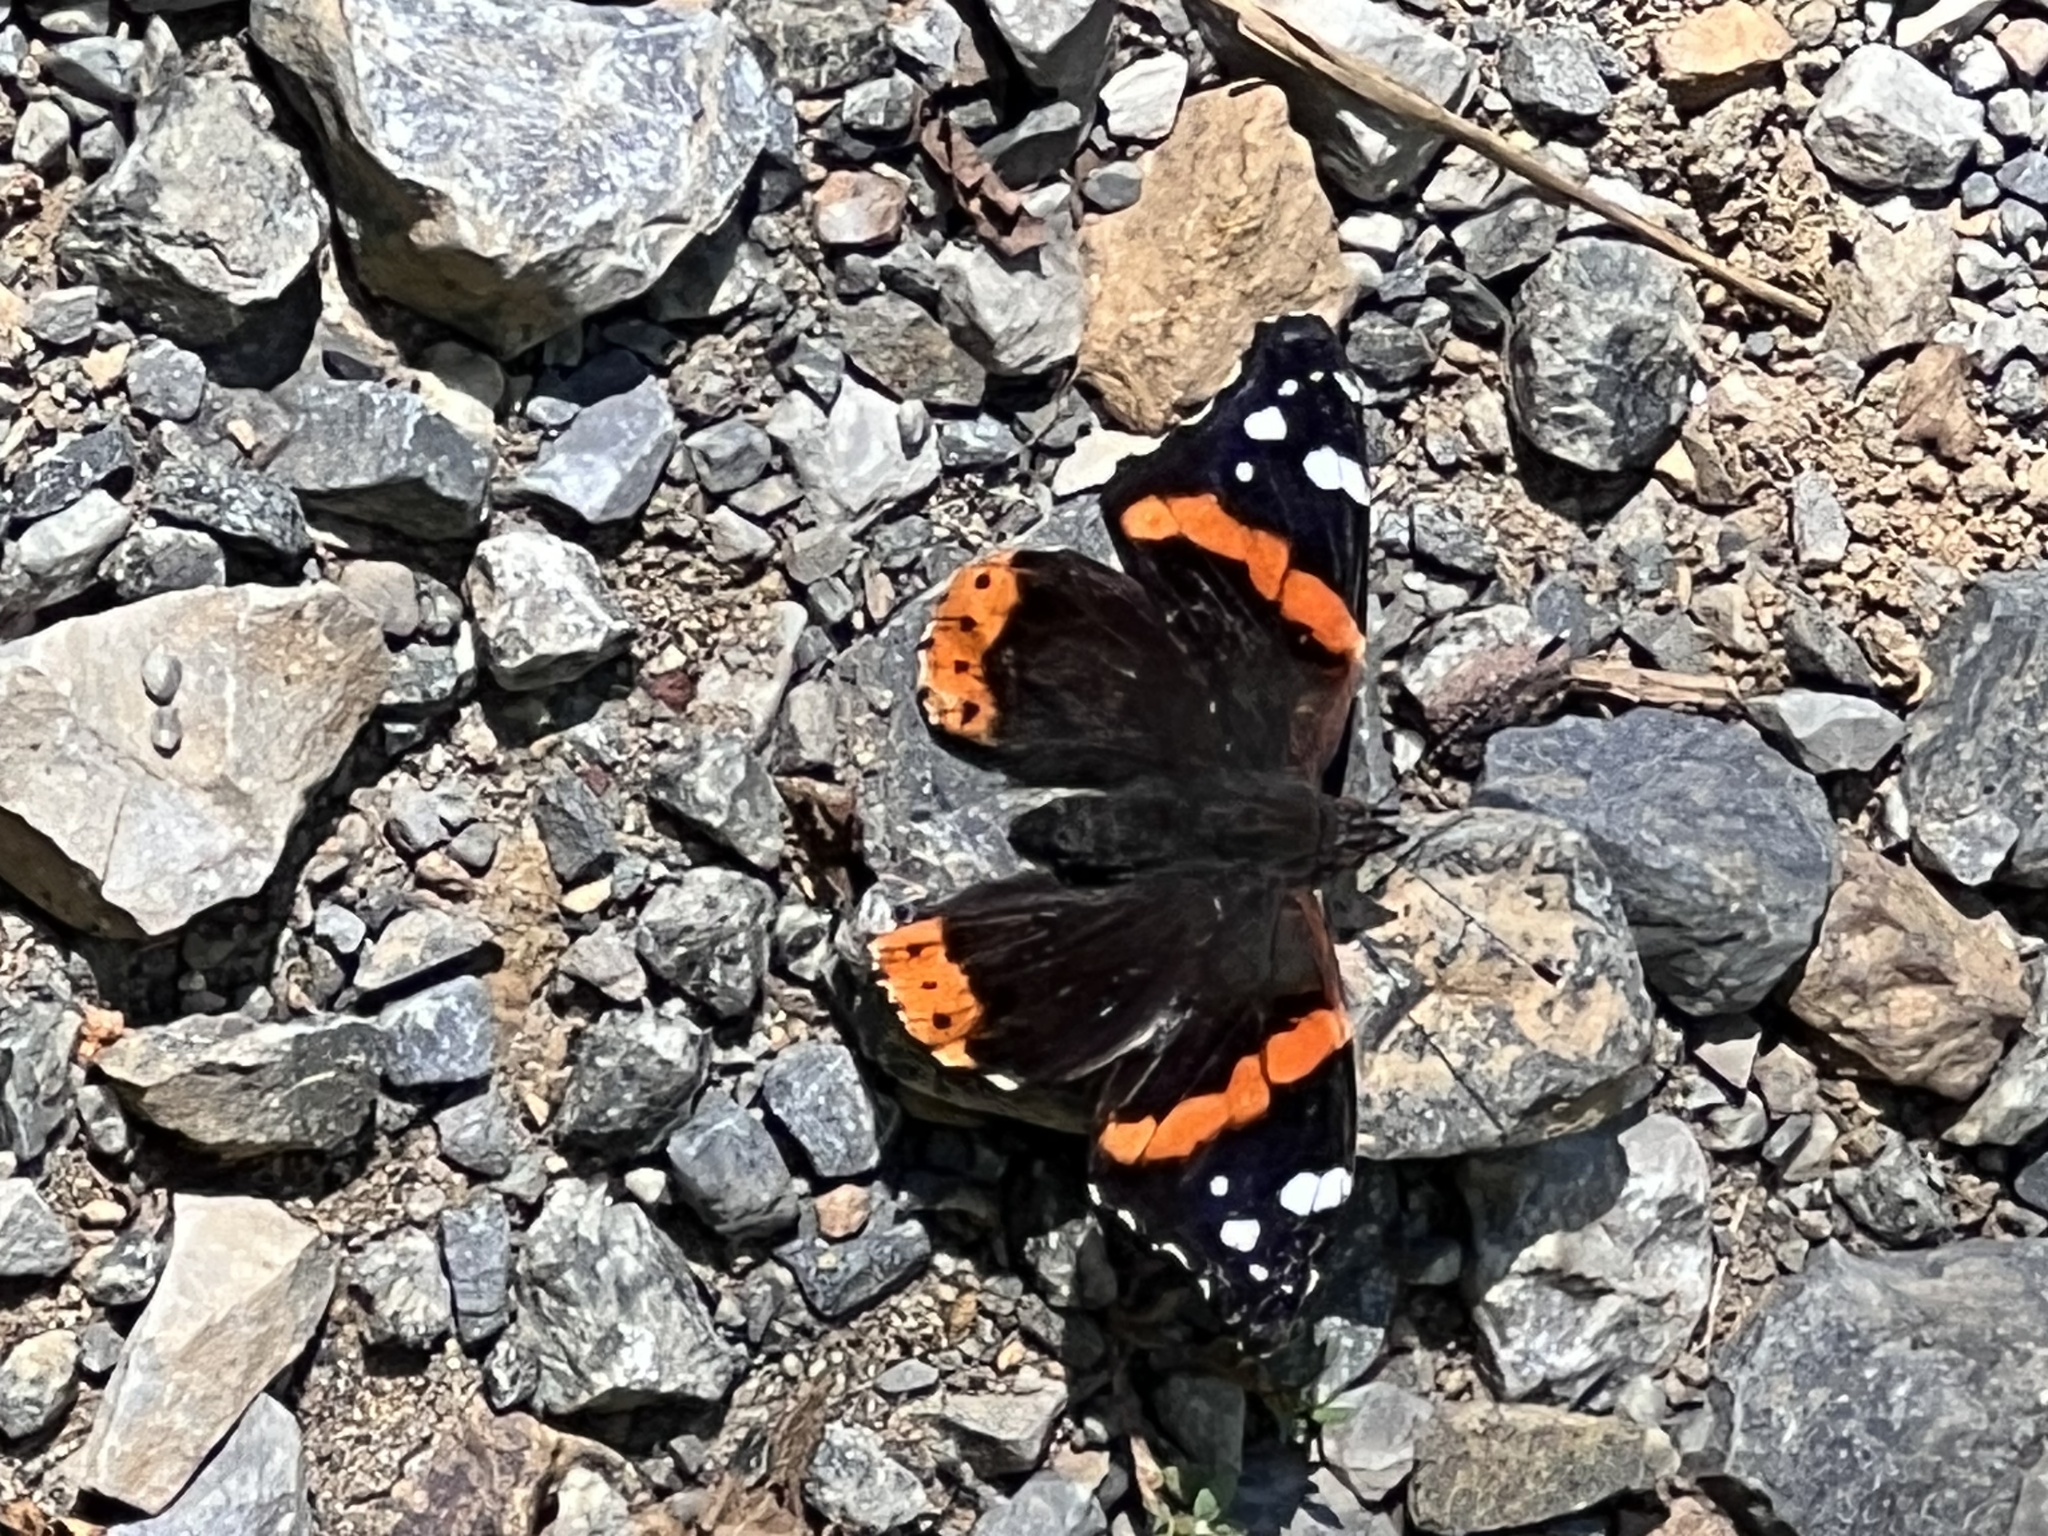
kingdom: Animalia
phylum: Arthropoda
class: Insecta
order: Lepidoptera
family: Nymphalidae
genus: Vanessa
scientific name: Vanessa atalanta
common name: Red admiral
